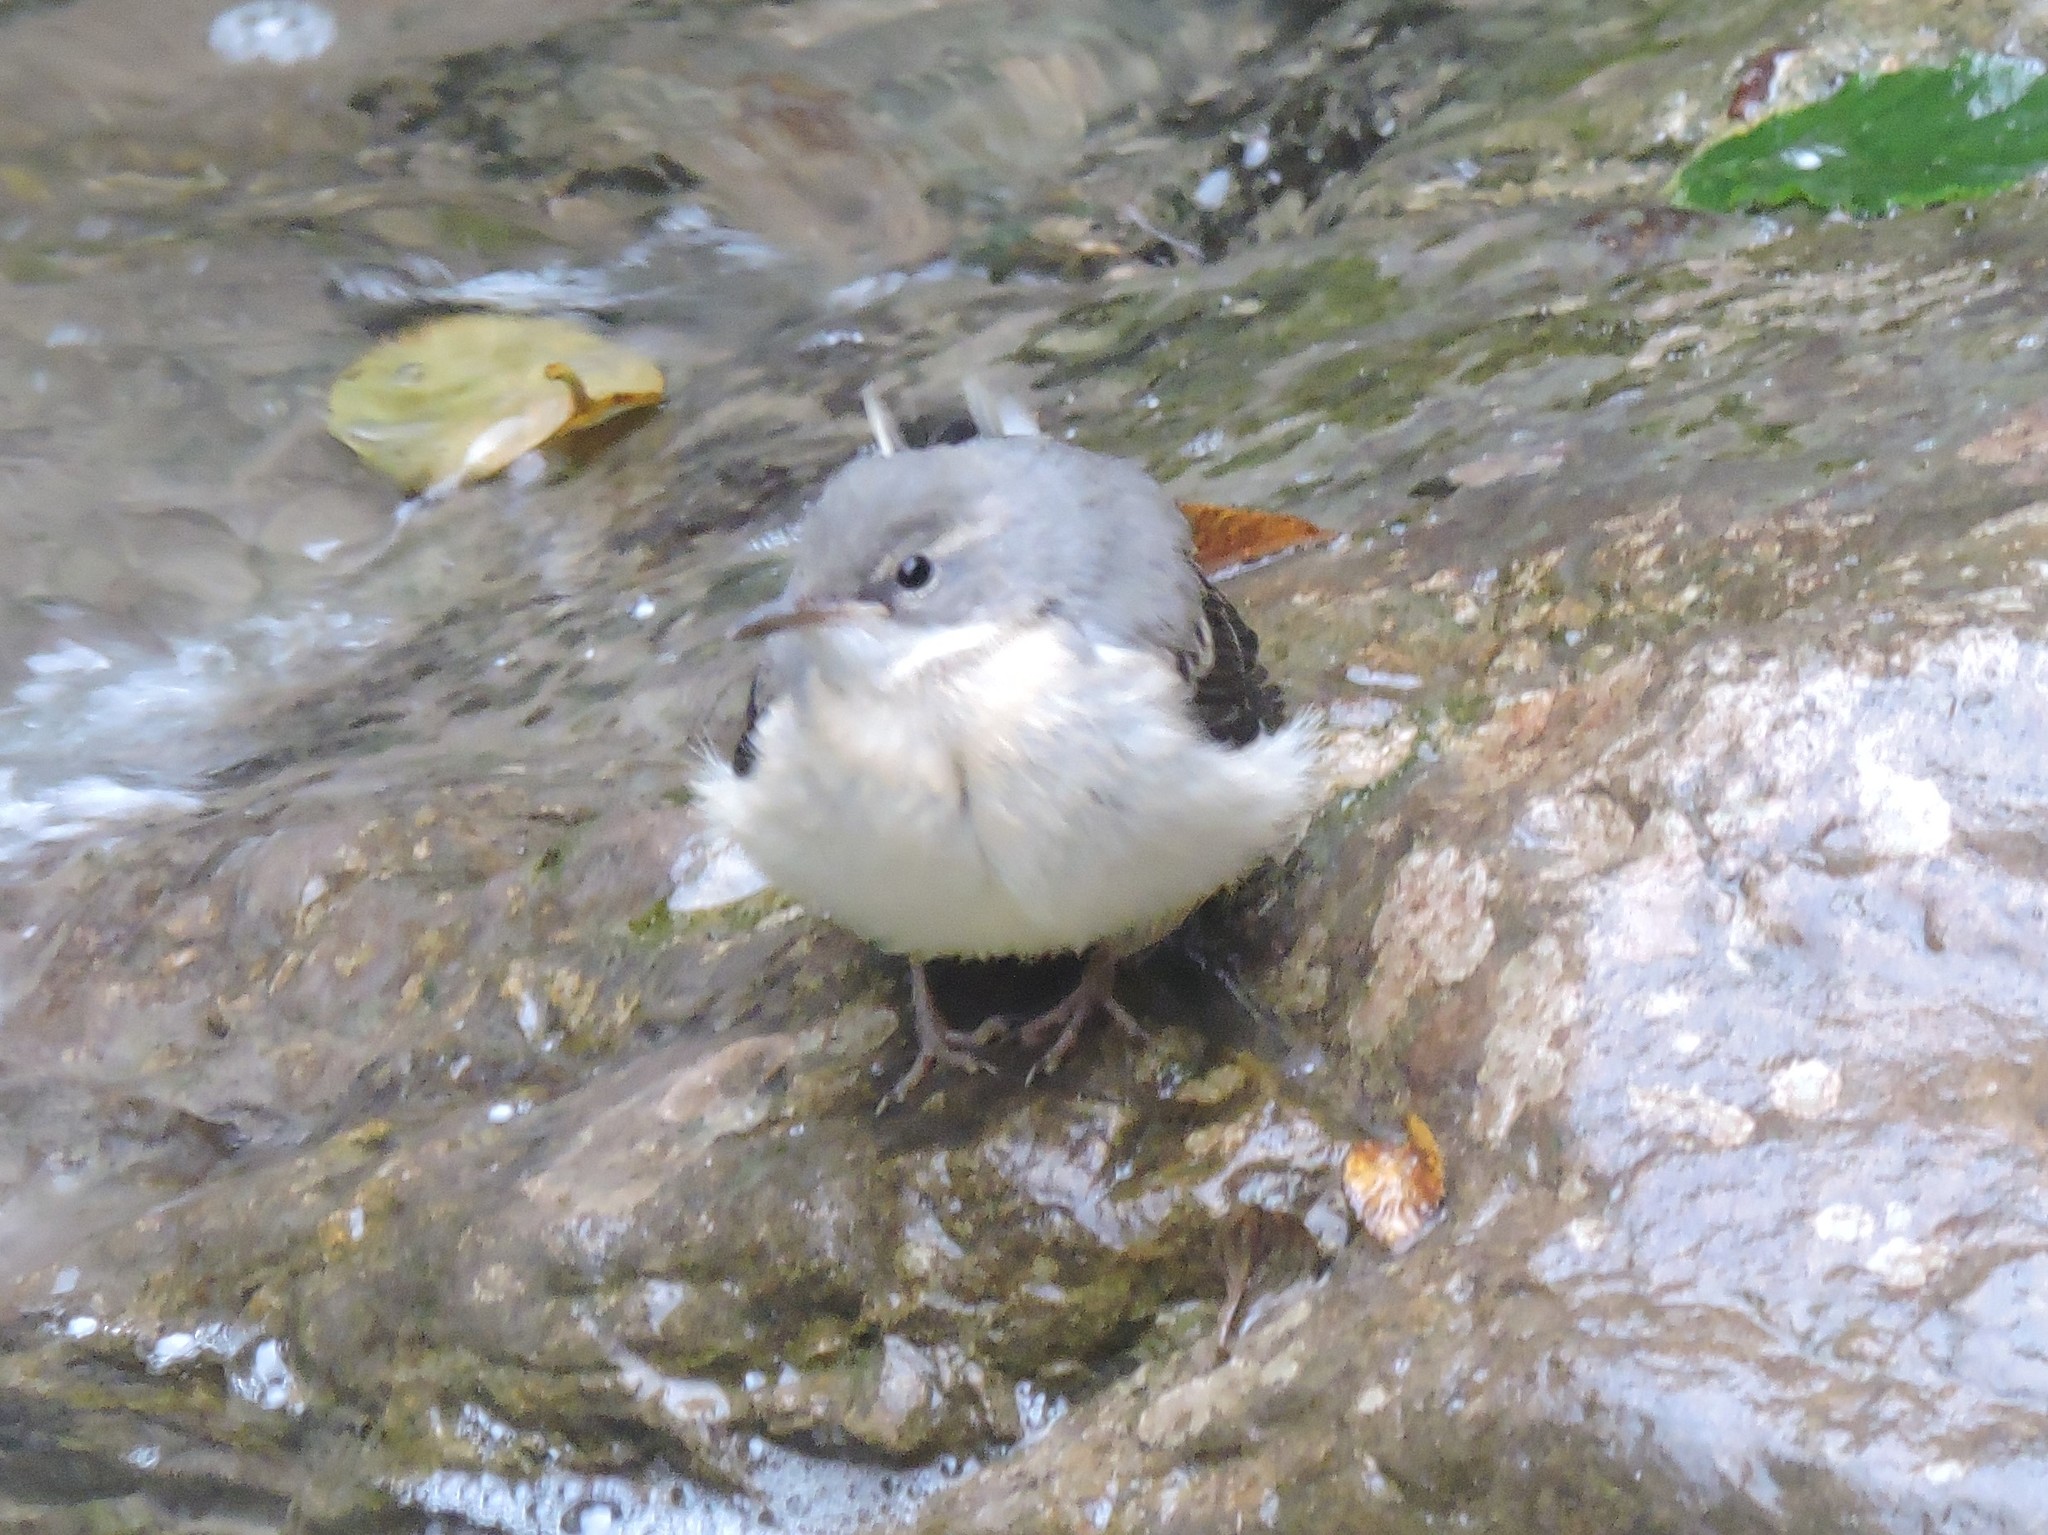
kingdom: Animalia
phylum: Chordata
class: Aves
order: Passeriformes
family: Motacillidae
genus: Motacilla
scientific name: Motacilla cinerea
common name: Grey wagtail
